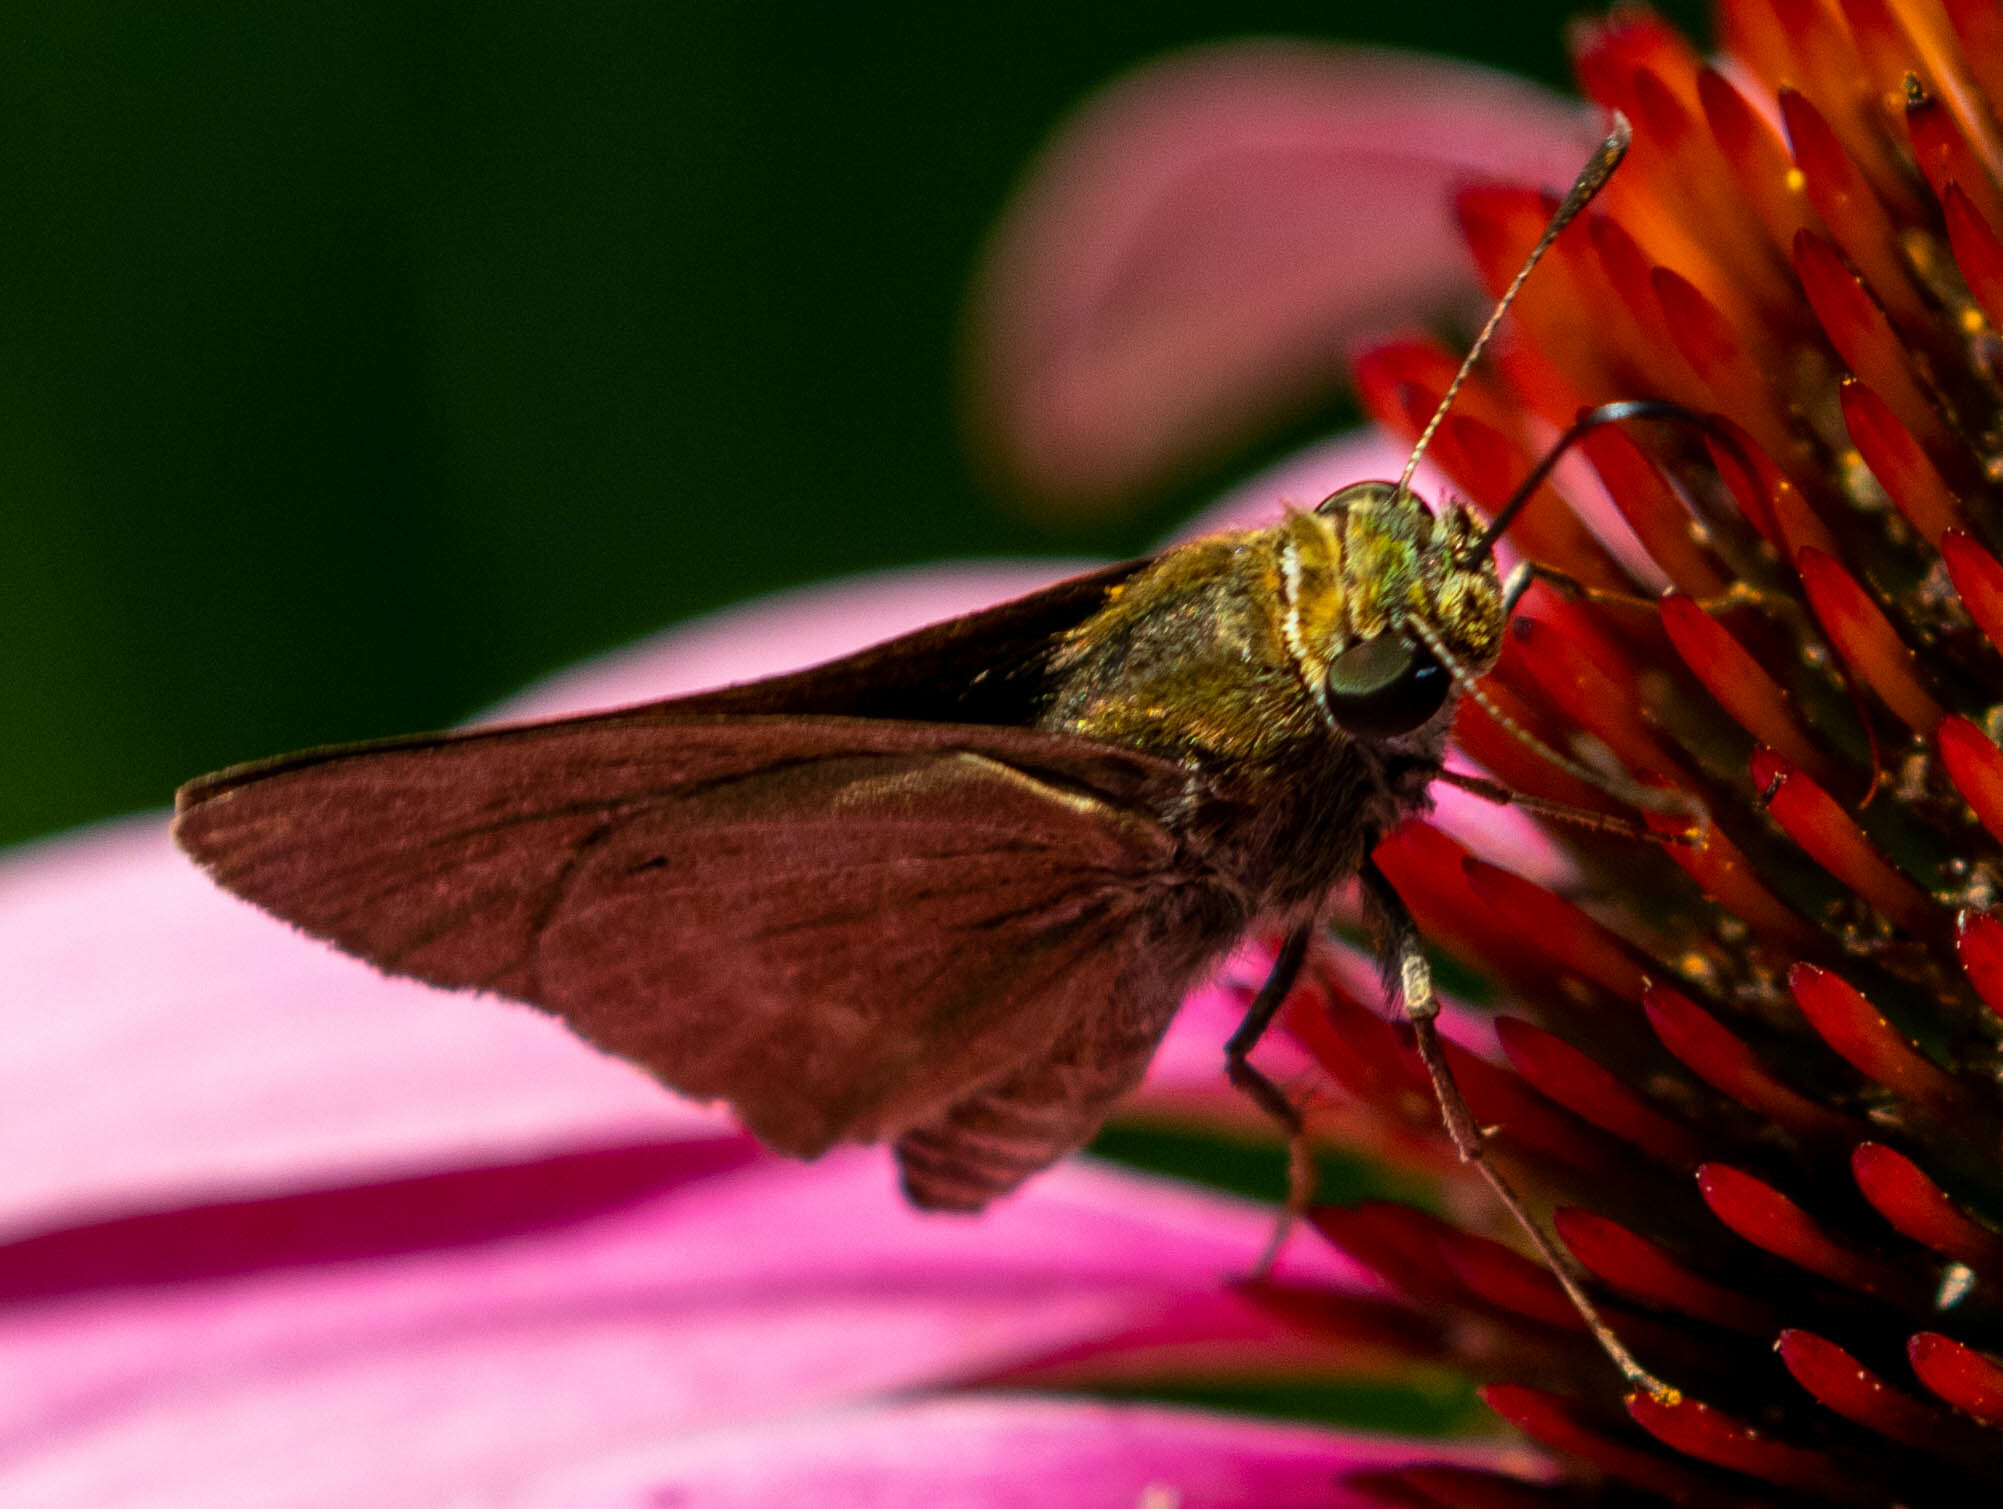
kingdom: Animalia
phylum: Arthropoda
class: Insecta
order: Lepidoptera
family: Hesperiidae
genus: Euphyes
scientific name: Euphyes vestris
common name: Dun skipper
